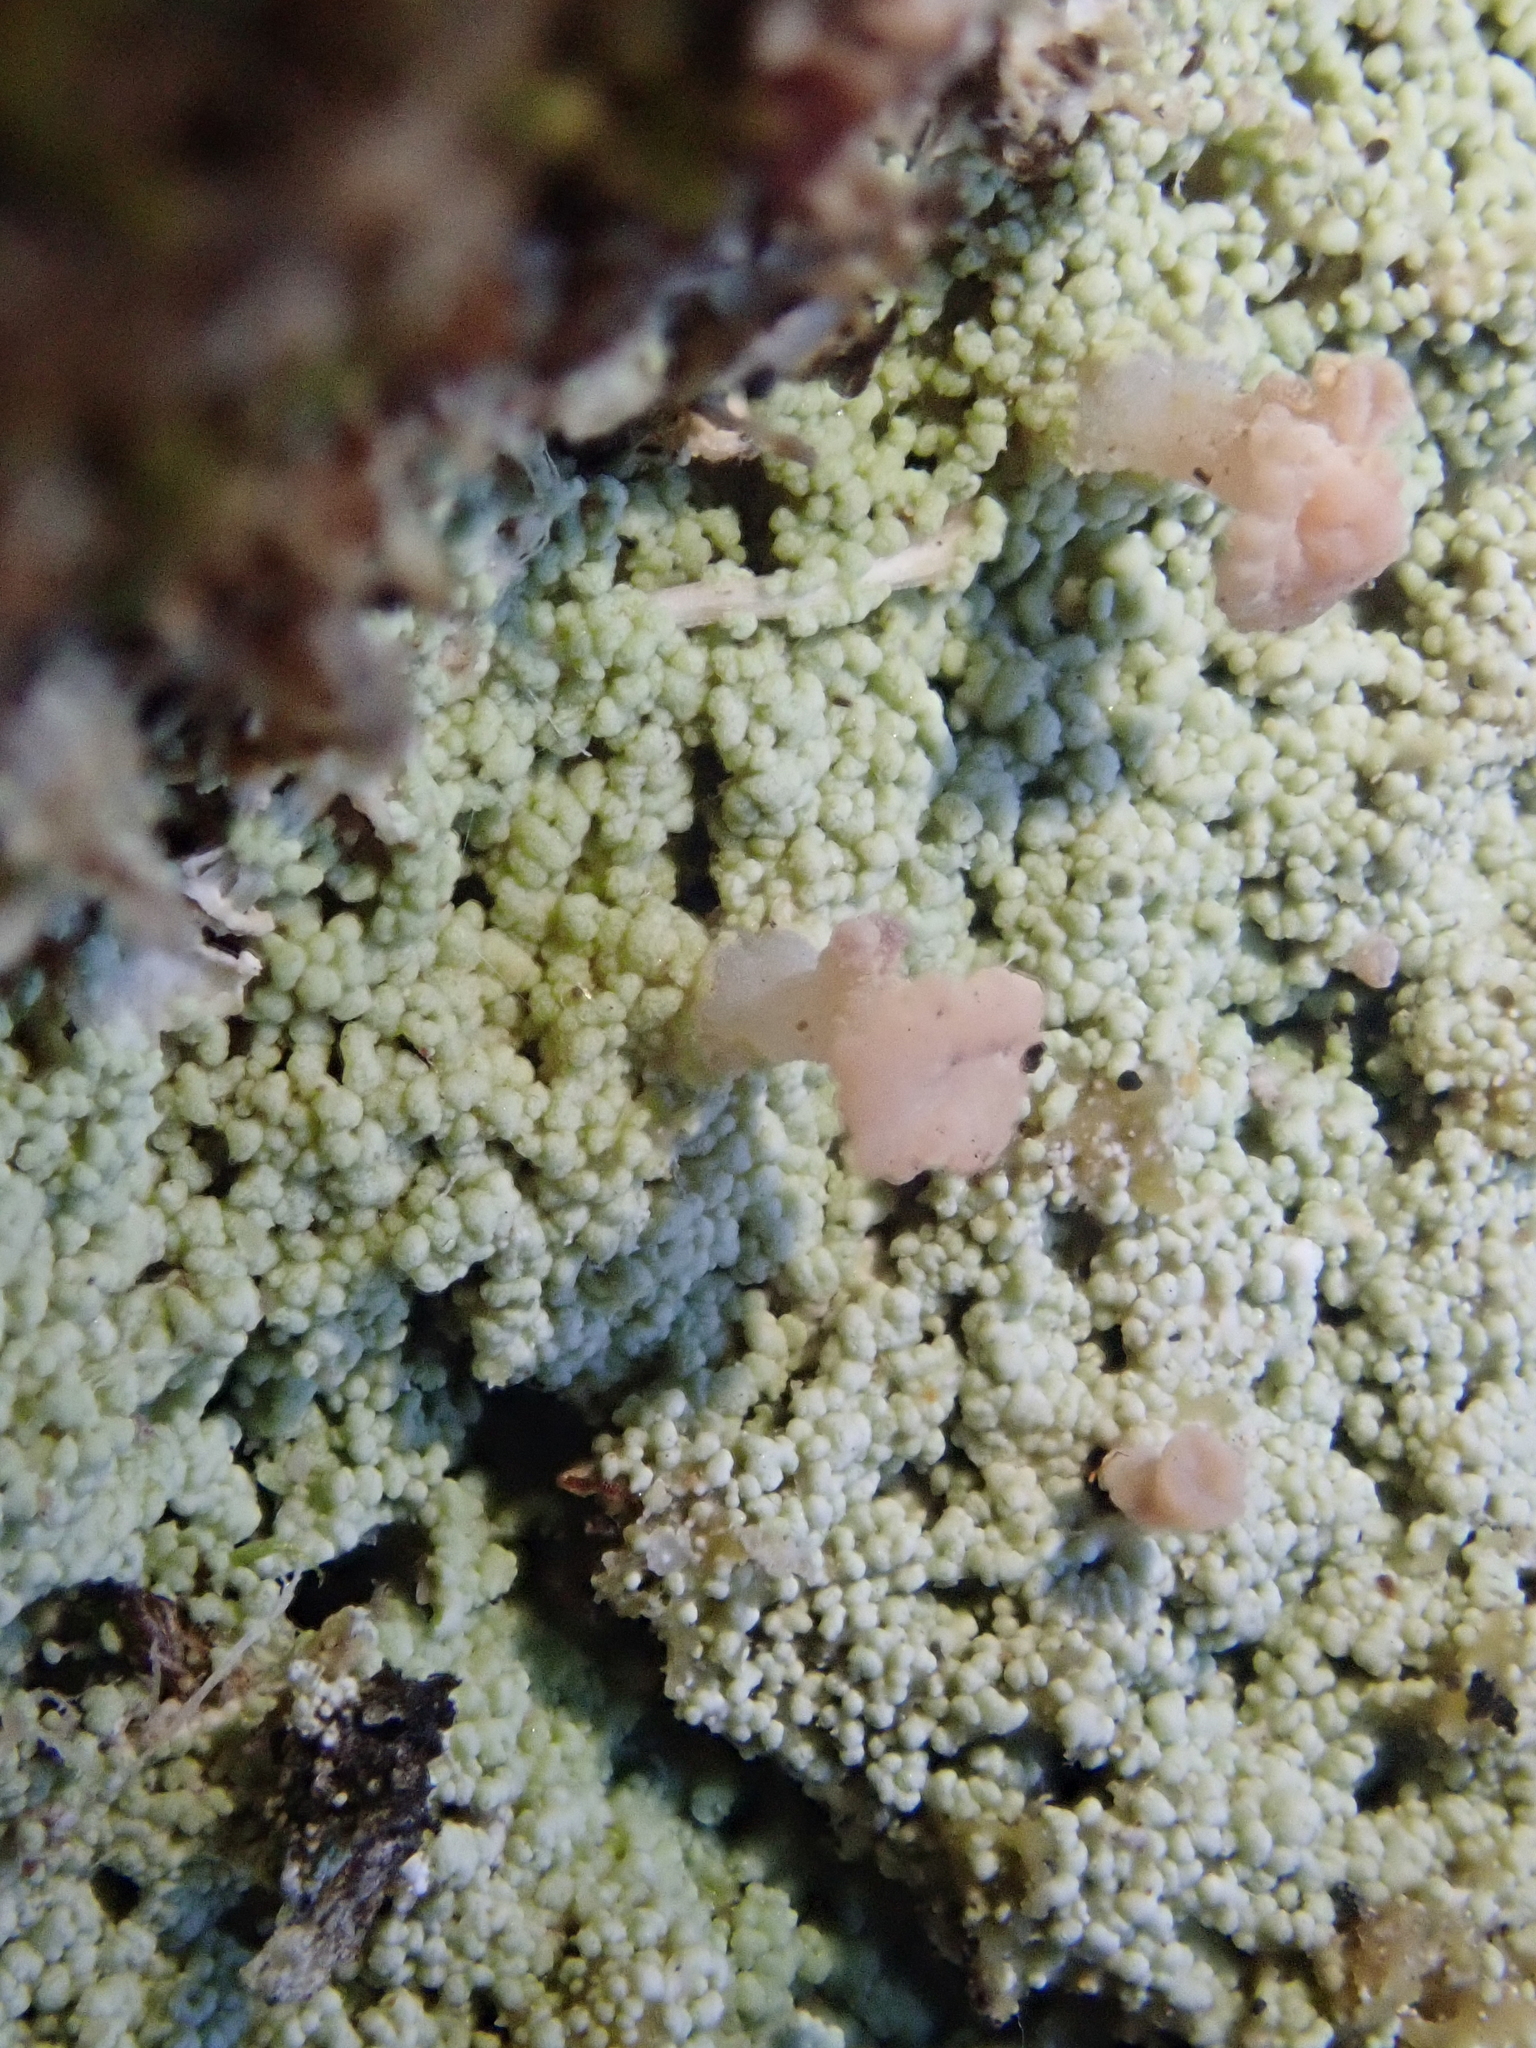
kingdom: Fungi
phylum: Ascomycota
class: Lecanoromycetes
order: Baeomycetales
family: Baeomycetaceae
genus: Baeomyces
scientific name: Baeomyces heteromorphus
